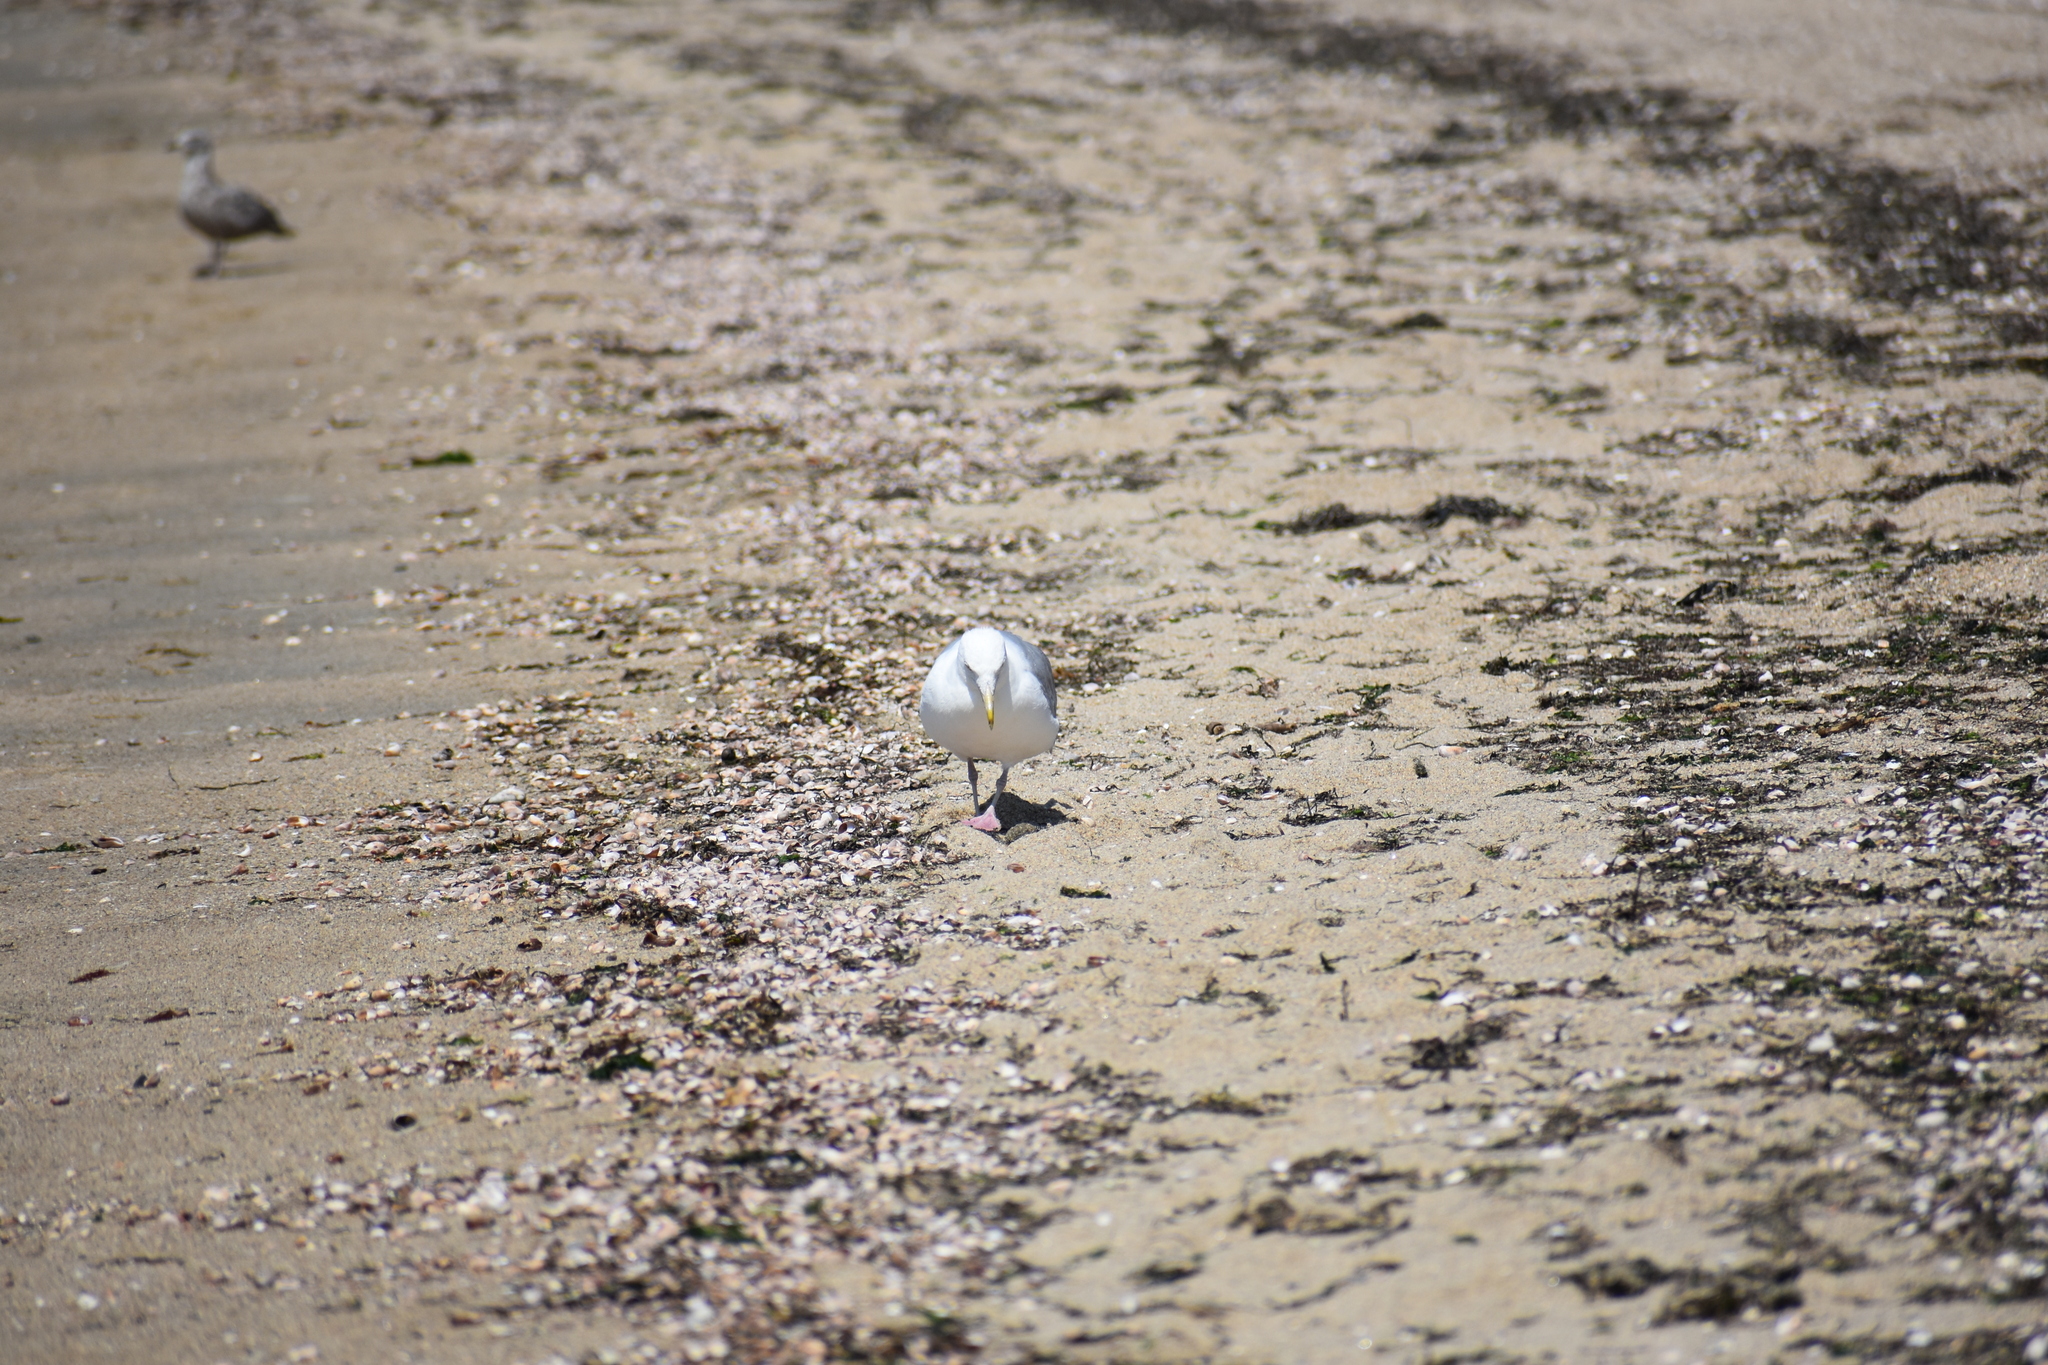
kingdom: Animalia
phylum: Chordata
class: Aves
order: Charadriiformes
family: Laridae
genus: Larus
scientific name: Larus argentatus
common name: Herring gull
